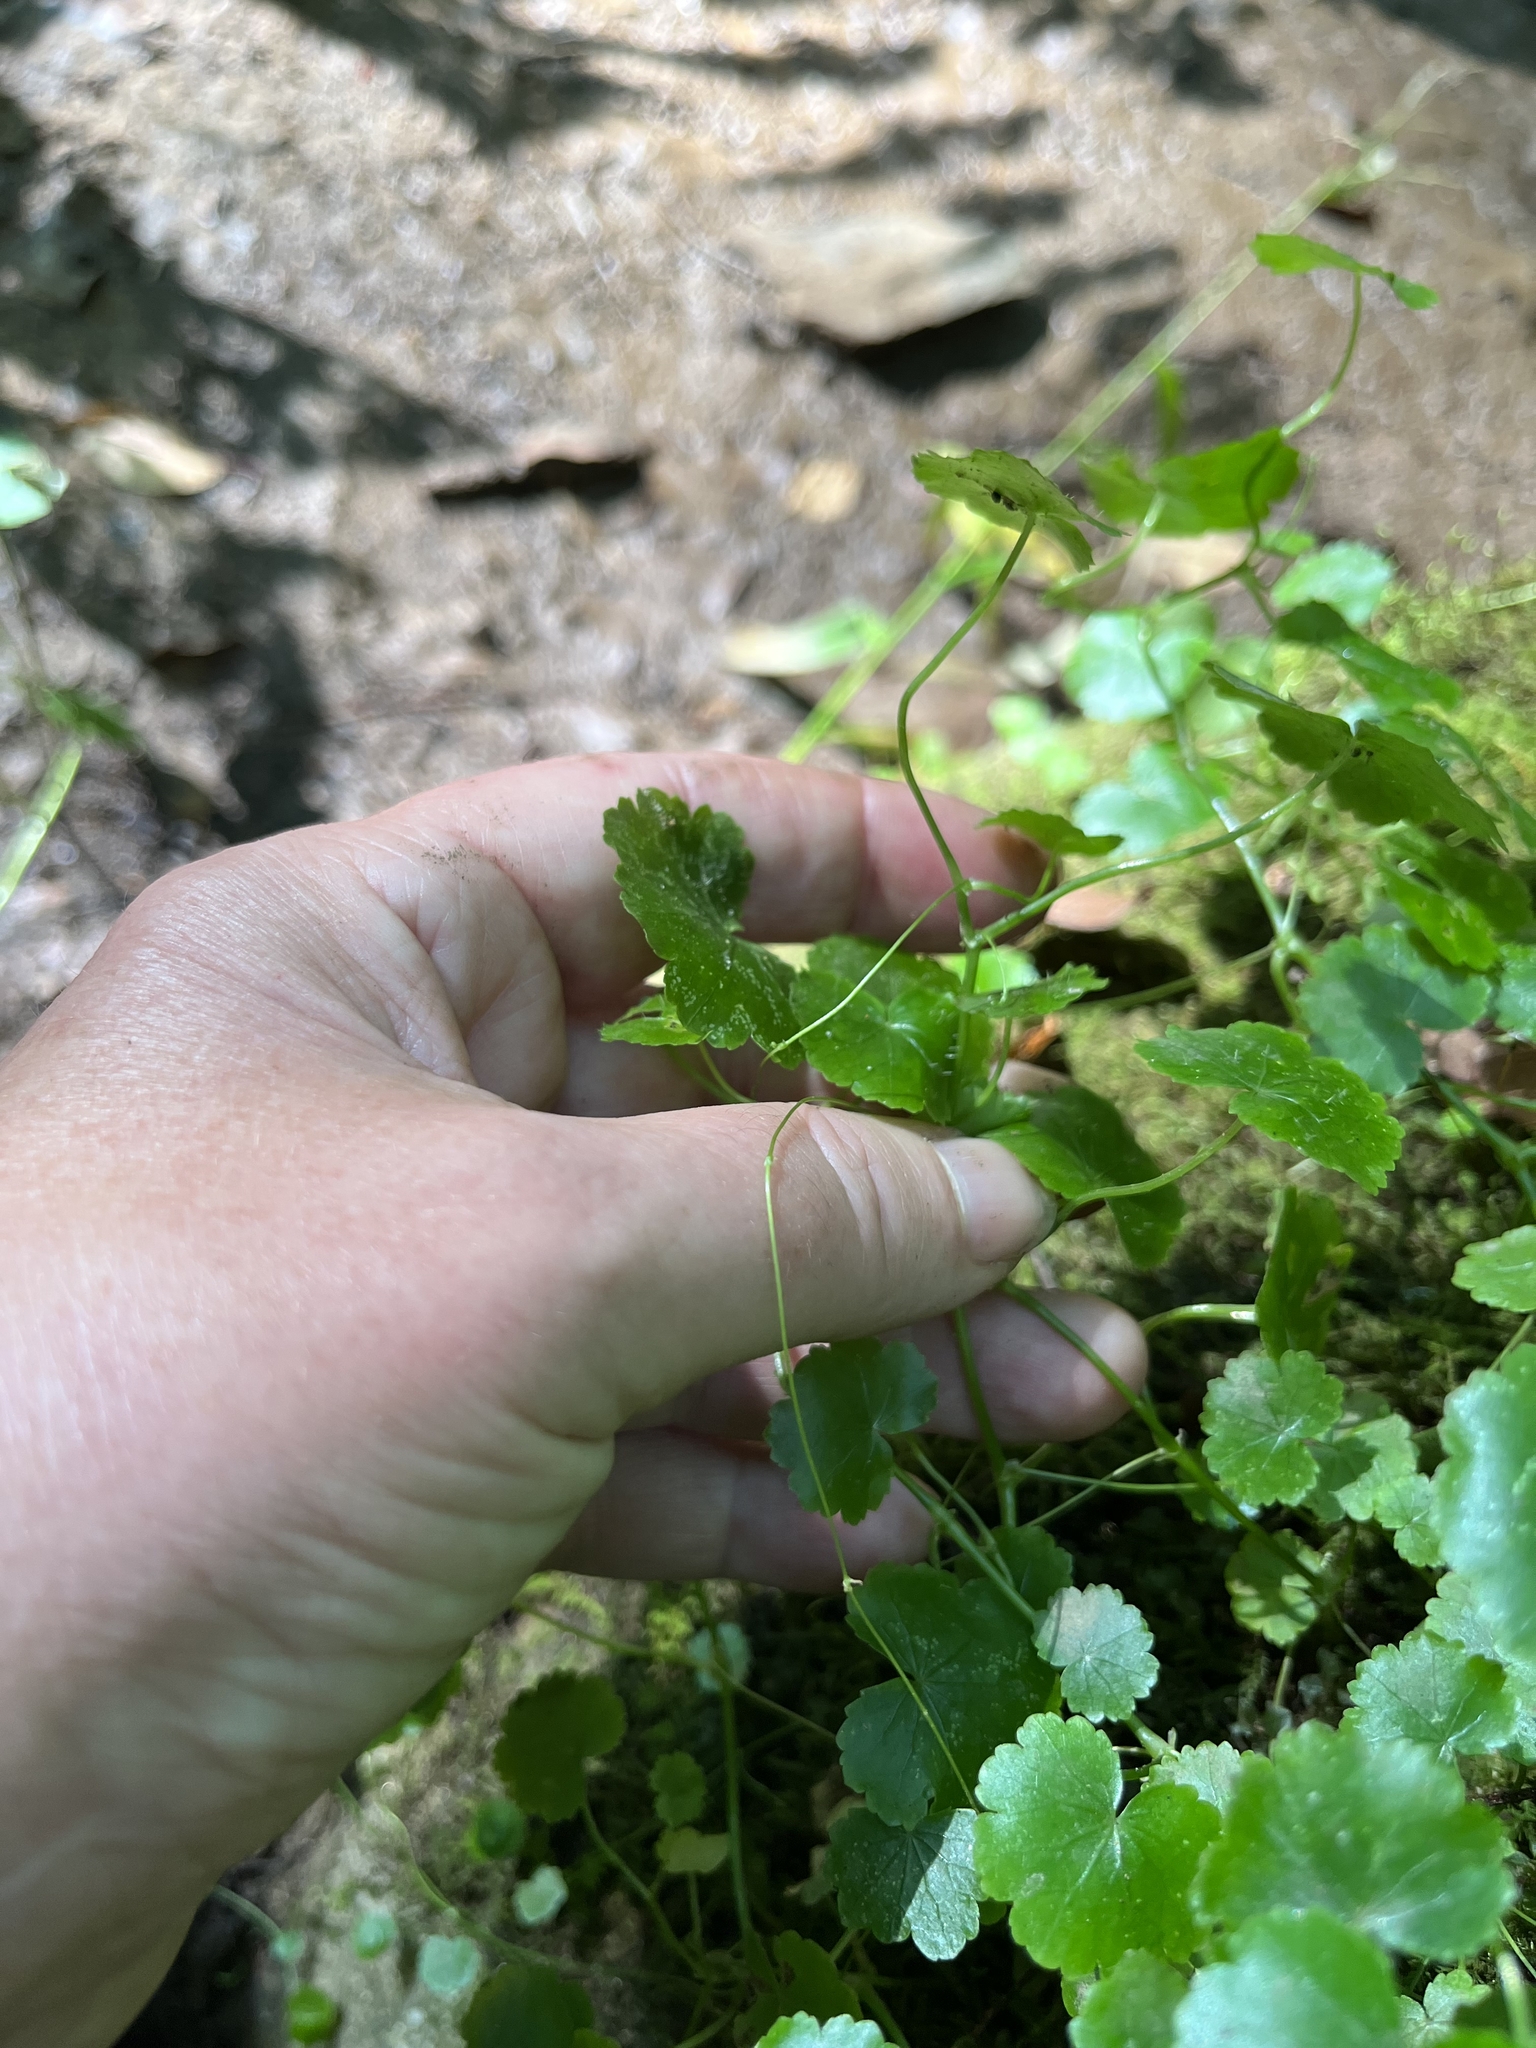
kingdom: Plantae
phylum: Tracheophyta
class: Magnoliopsida
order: Apiales
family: Araliaceae
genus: Hydrocotyle
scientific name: Hydrocotyle americana
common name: American water-pennywort
